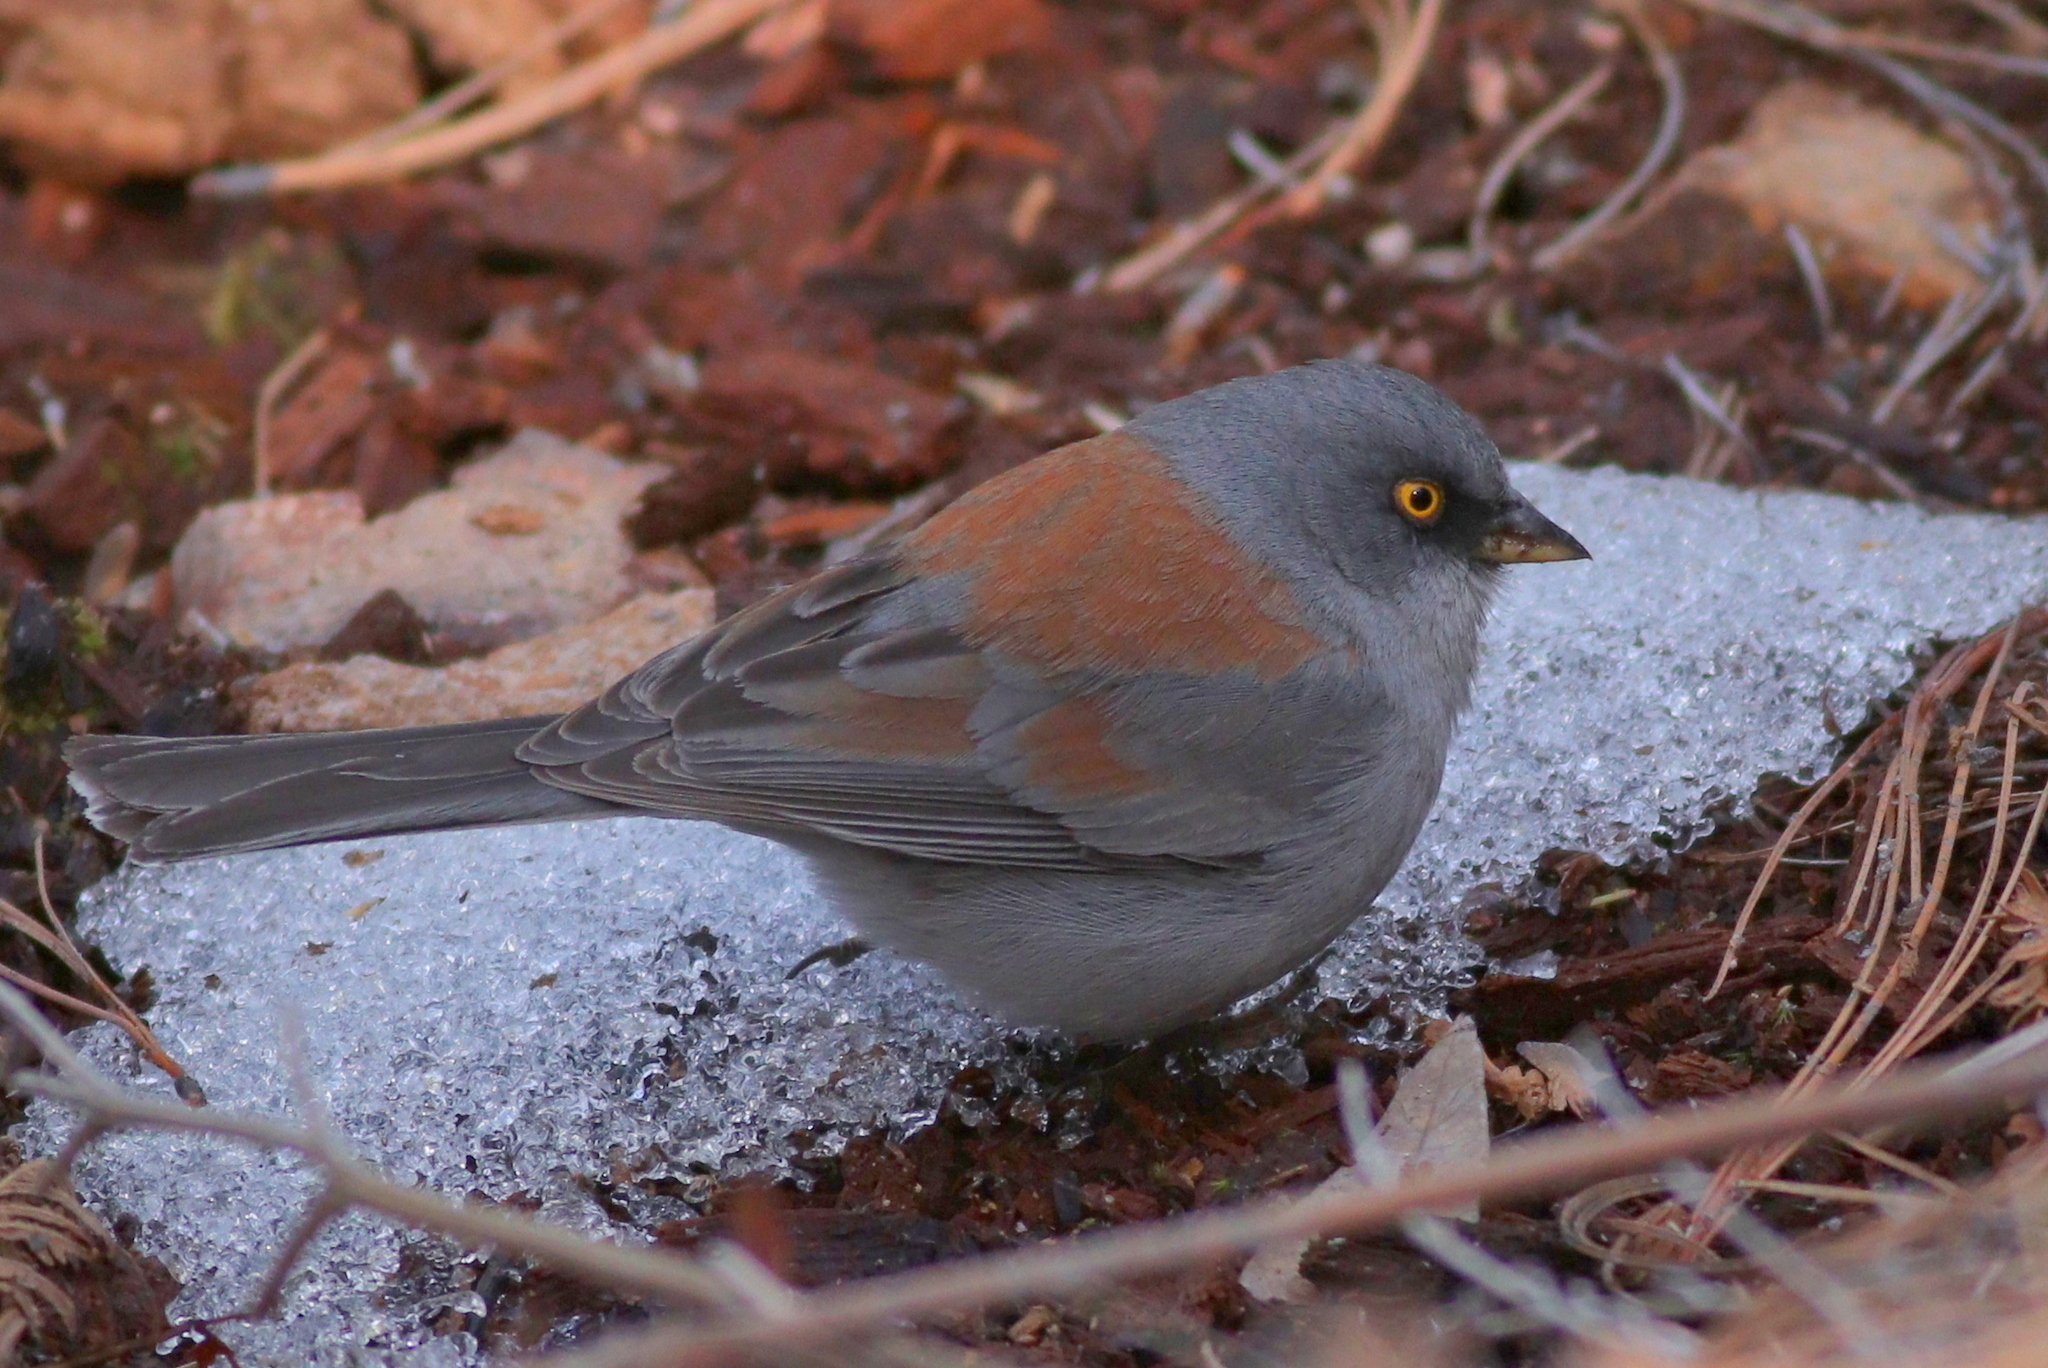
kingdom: Animalia
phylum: Chordata
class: Aves
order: Passeriformes
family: Passerellidae
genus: Junco
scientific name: Junco phaeonotus
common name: Yellow-eyed junco
